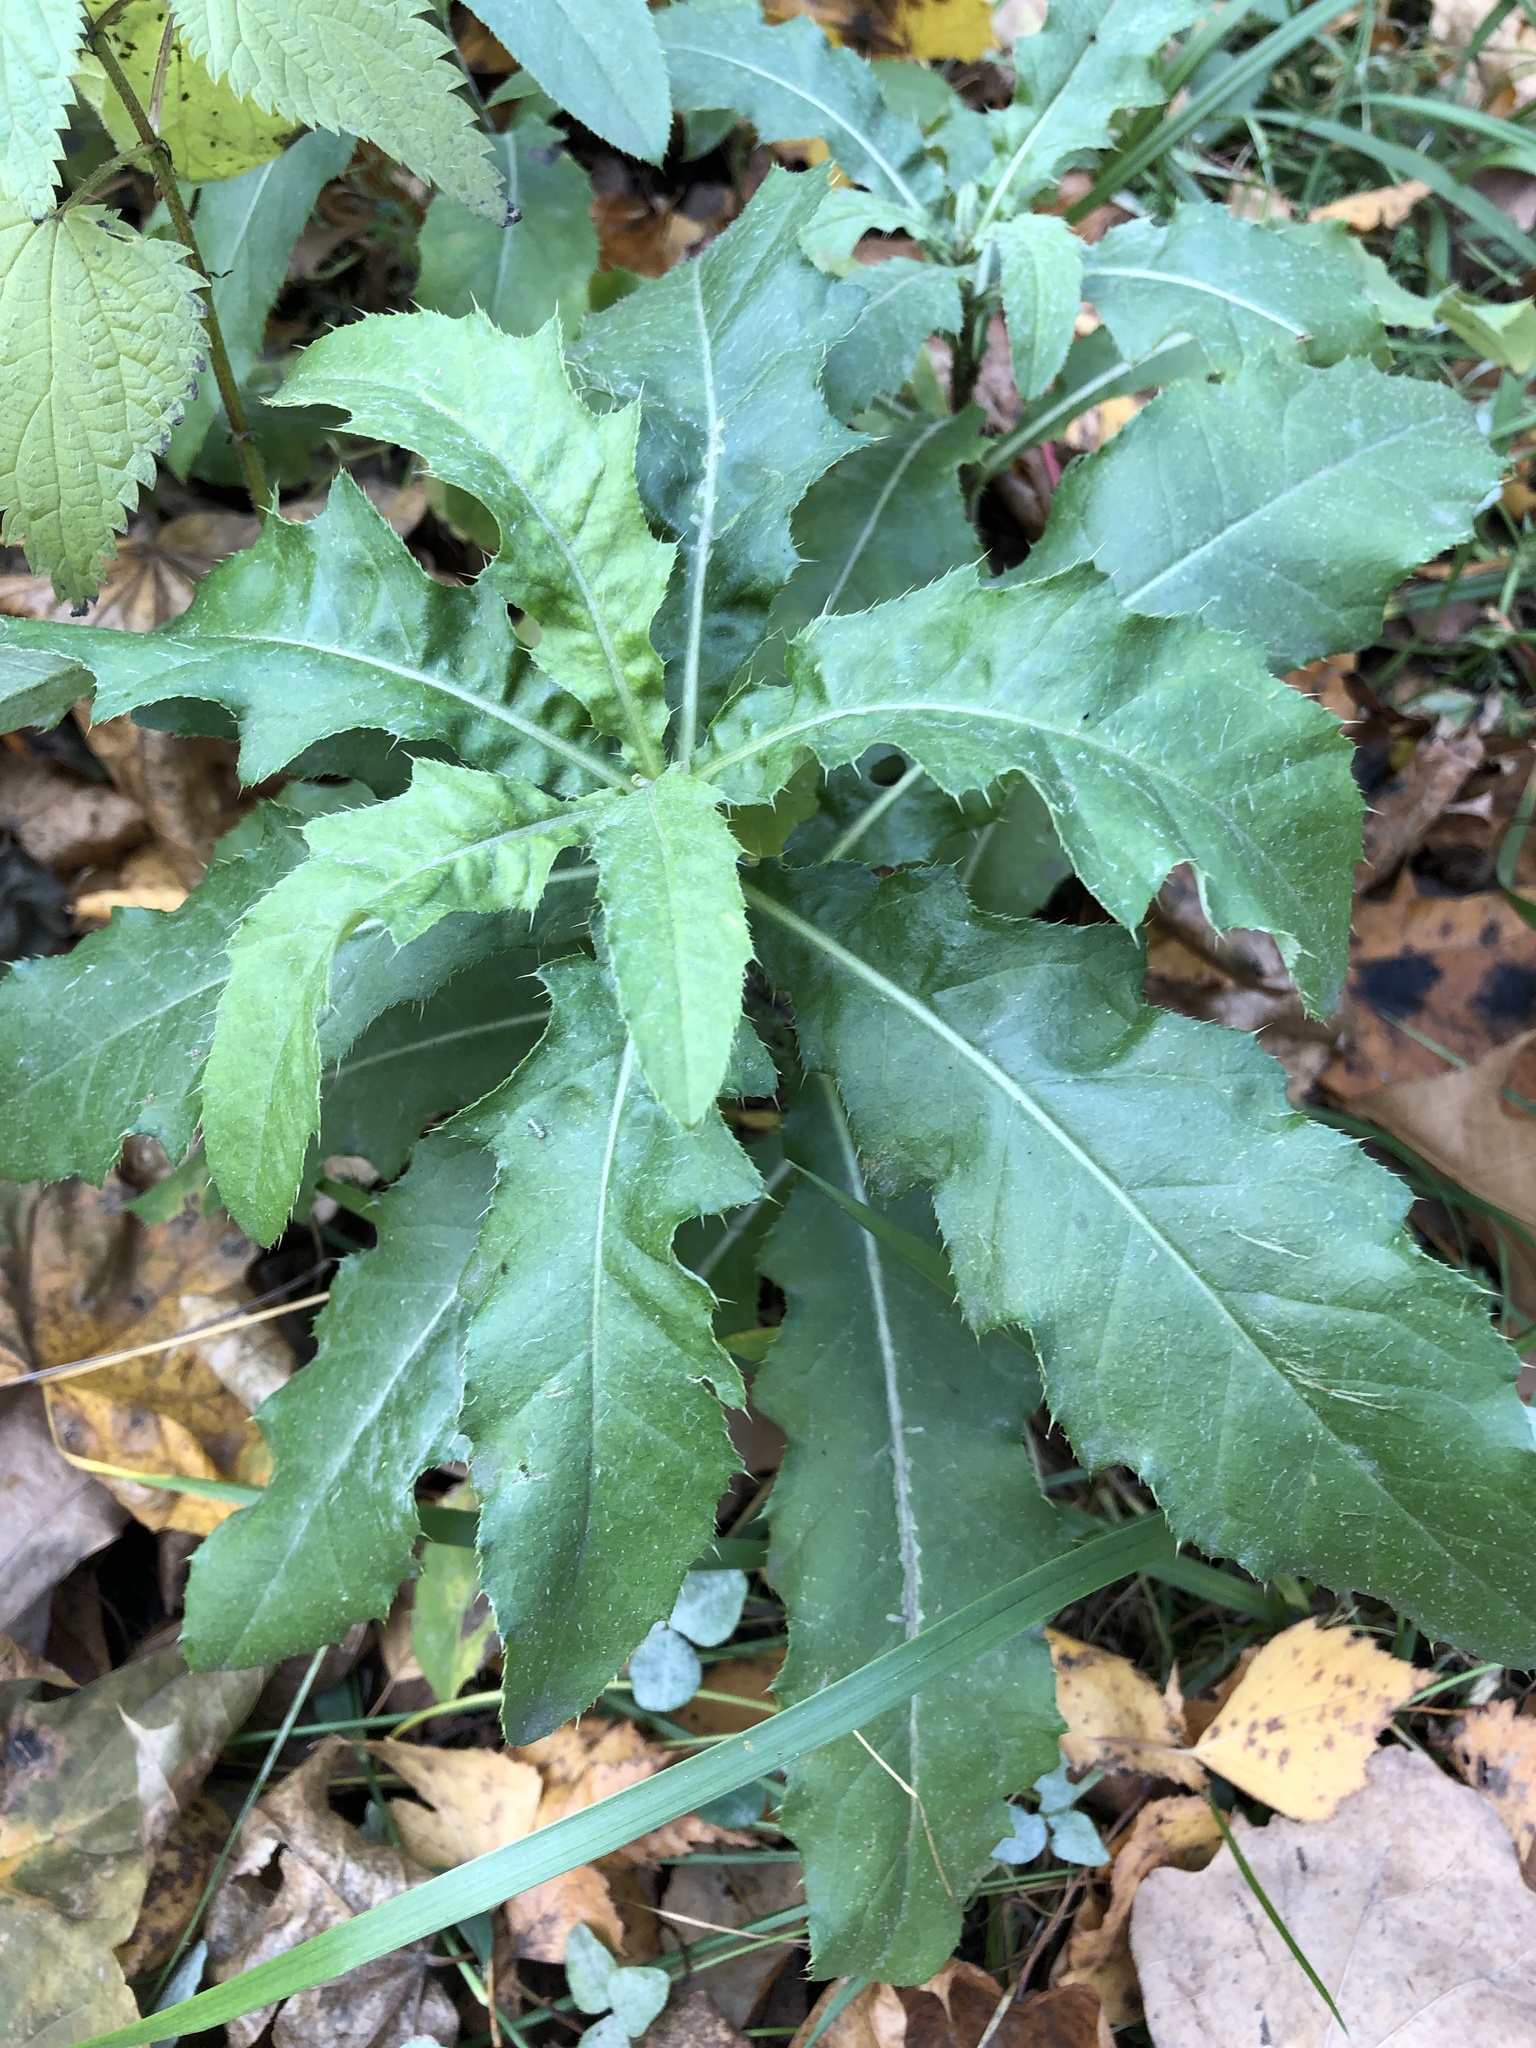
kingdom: Plantae
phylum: Tracheophyta
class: Magnoliopsida
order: Asterales
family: Asteraceae
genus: Cirsium
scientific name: Cirsium arvense
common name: Creeping thistle
